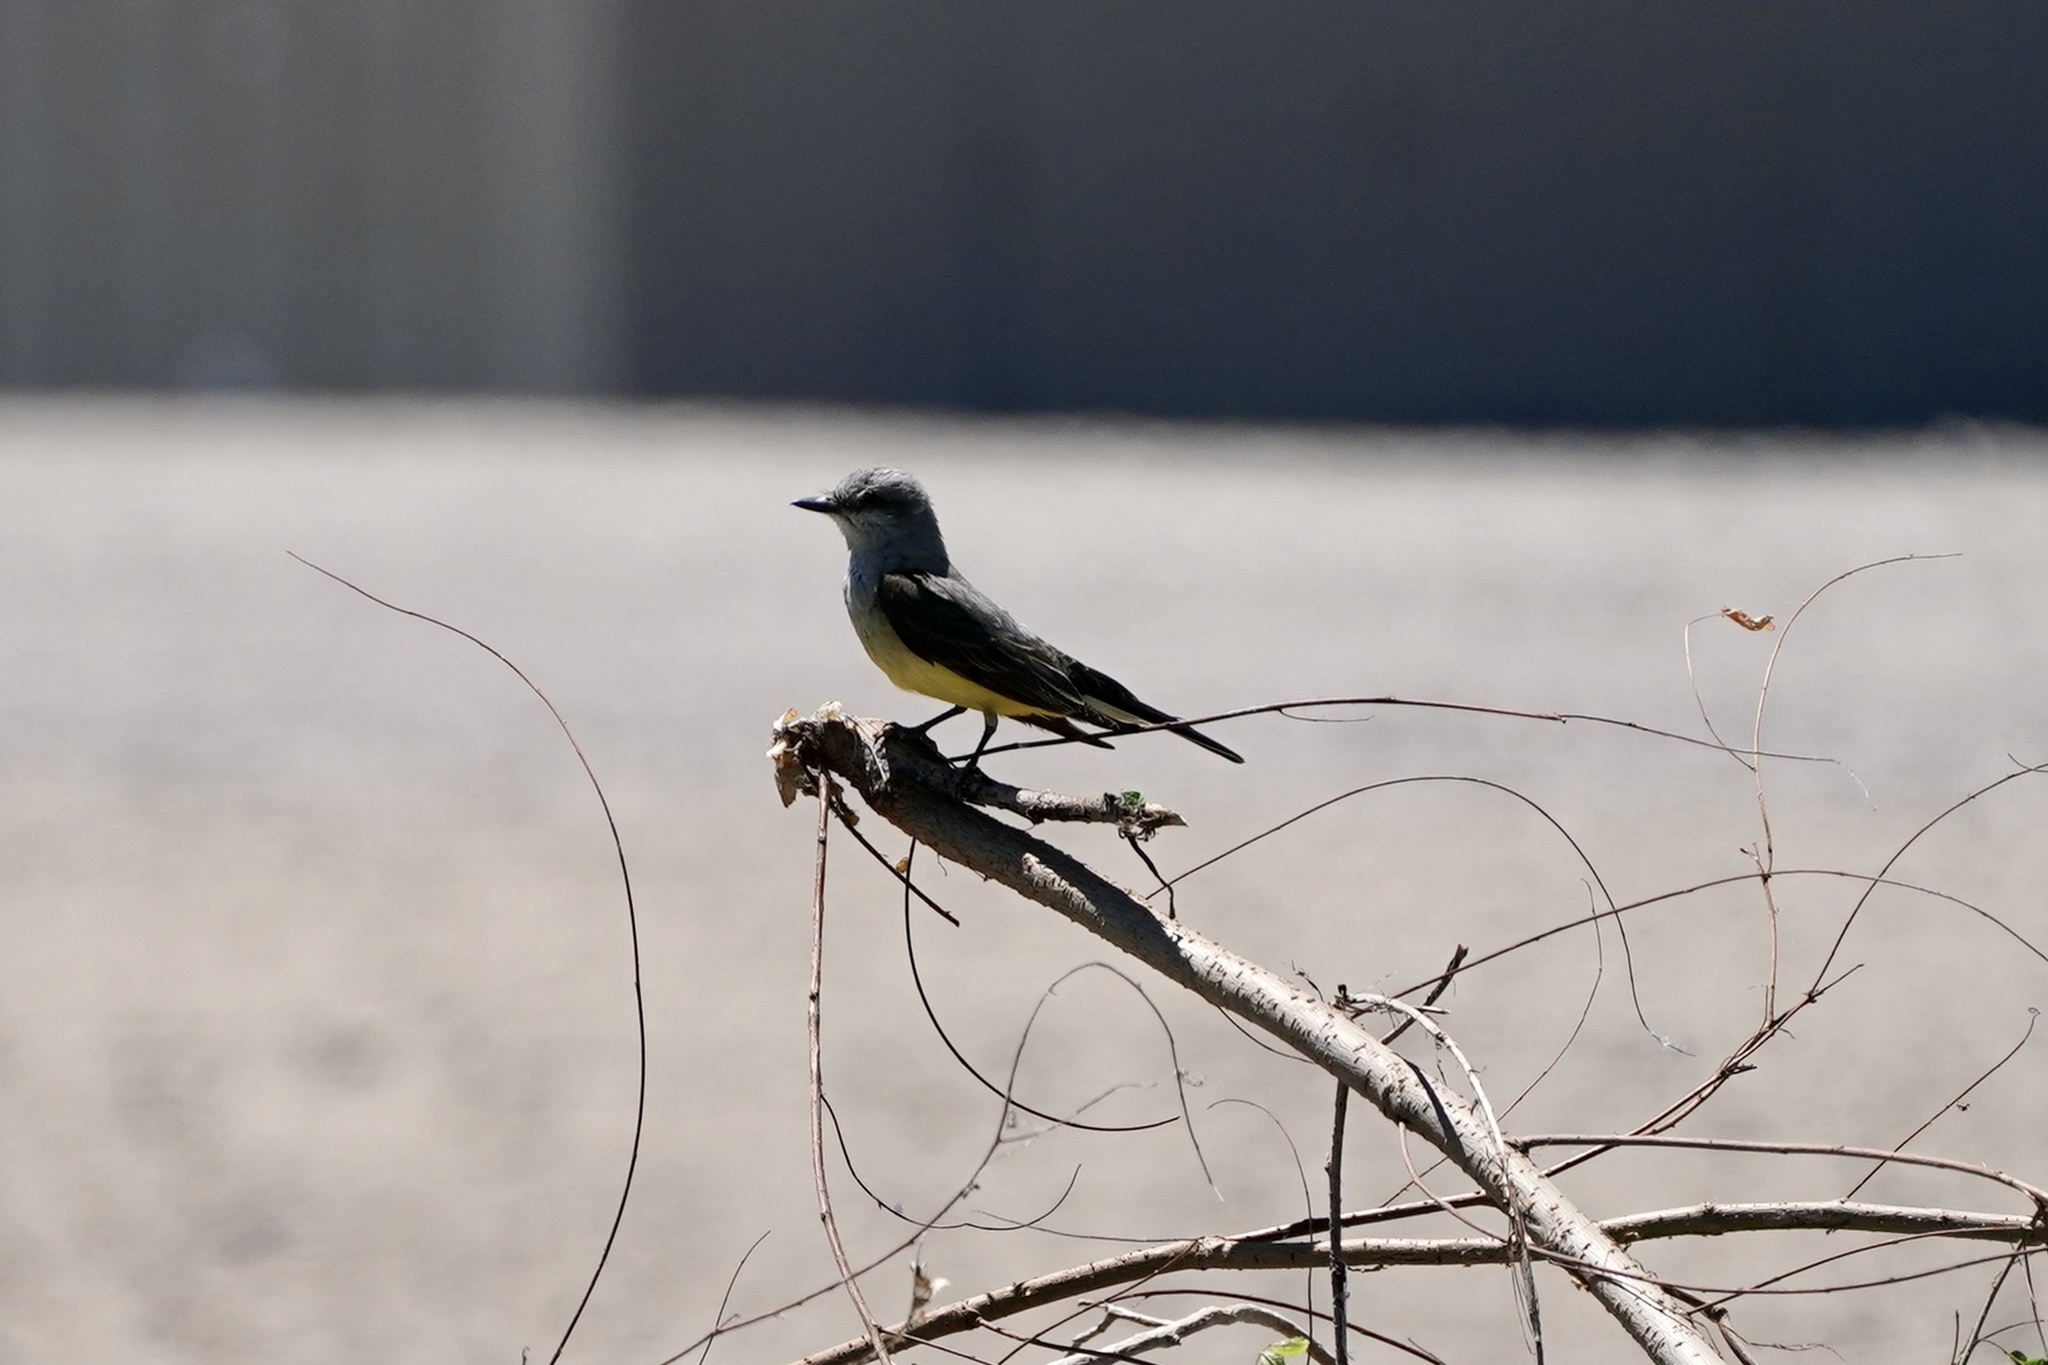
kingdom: Animalia
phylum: Chordata
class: Aves
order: Passeriformes
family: Tyrannidae
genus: Tyrannus
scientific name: Tyrannus verticalis
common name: Western kingbird
